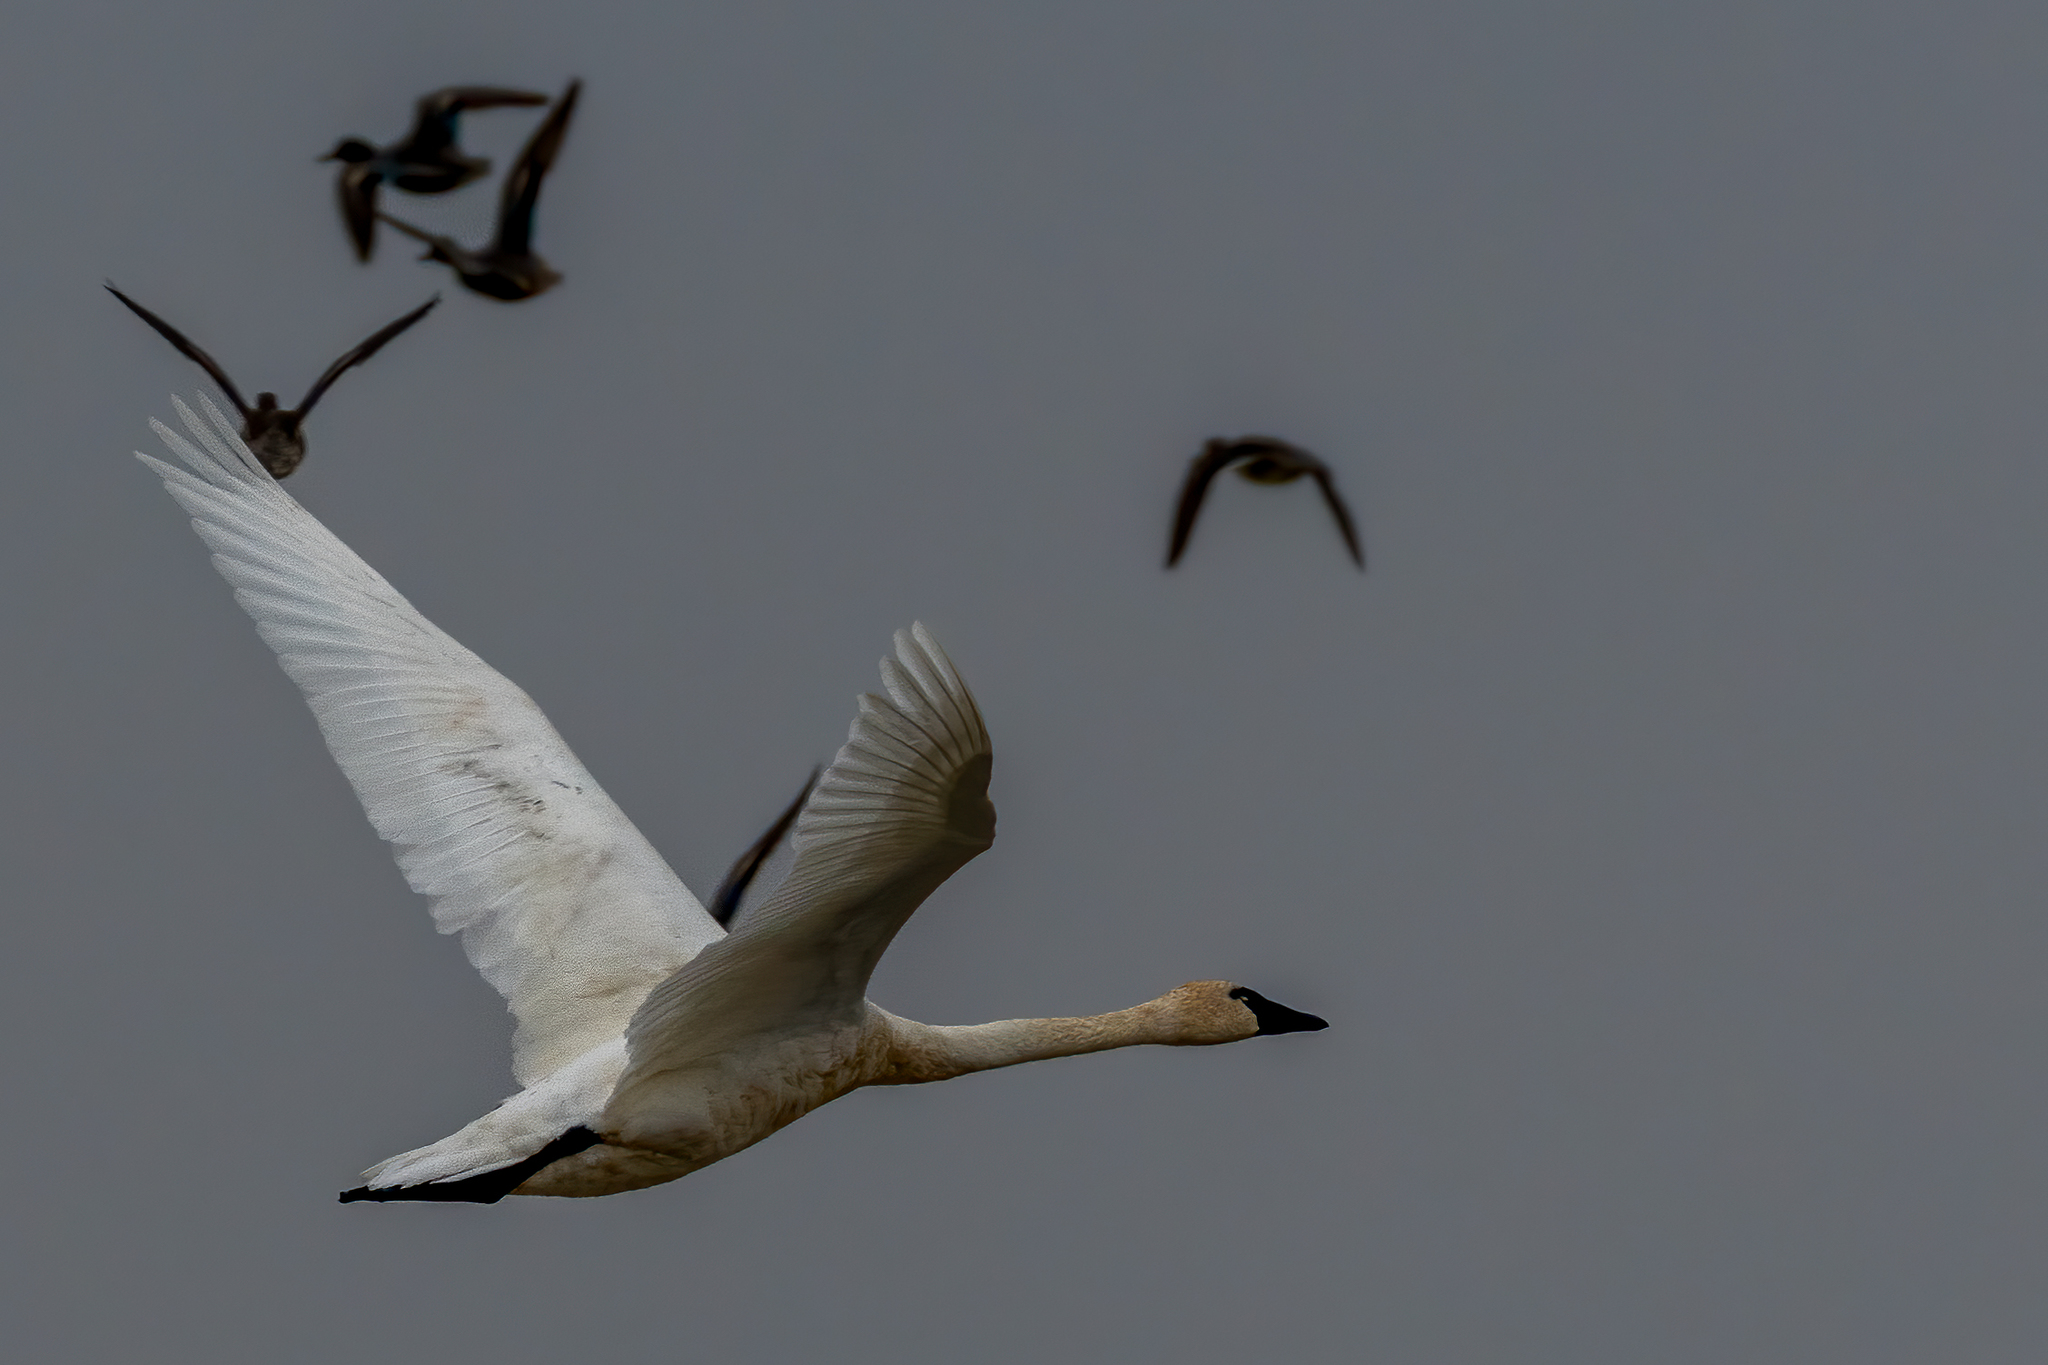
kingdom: Animalia
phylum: Chordata
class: Aves
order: Anseriformes
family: Anatidae
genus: Cygnus
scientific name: Cygnus columbianus
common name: Tundra swan
